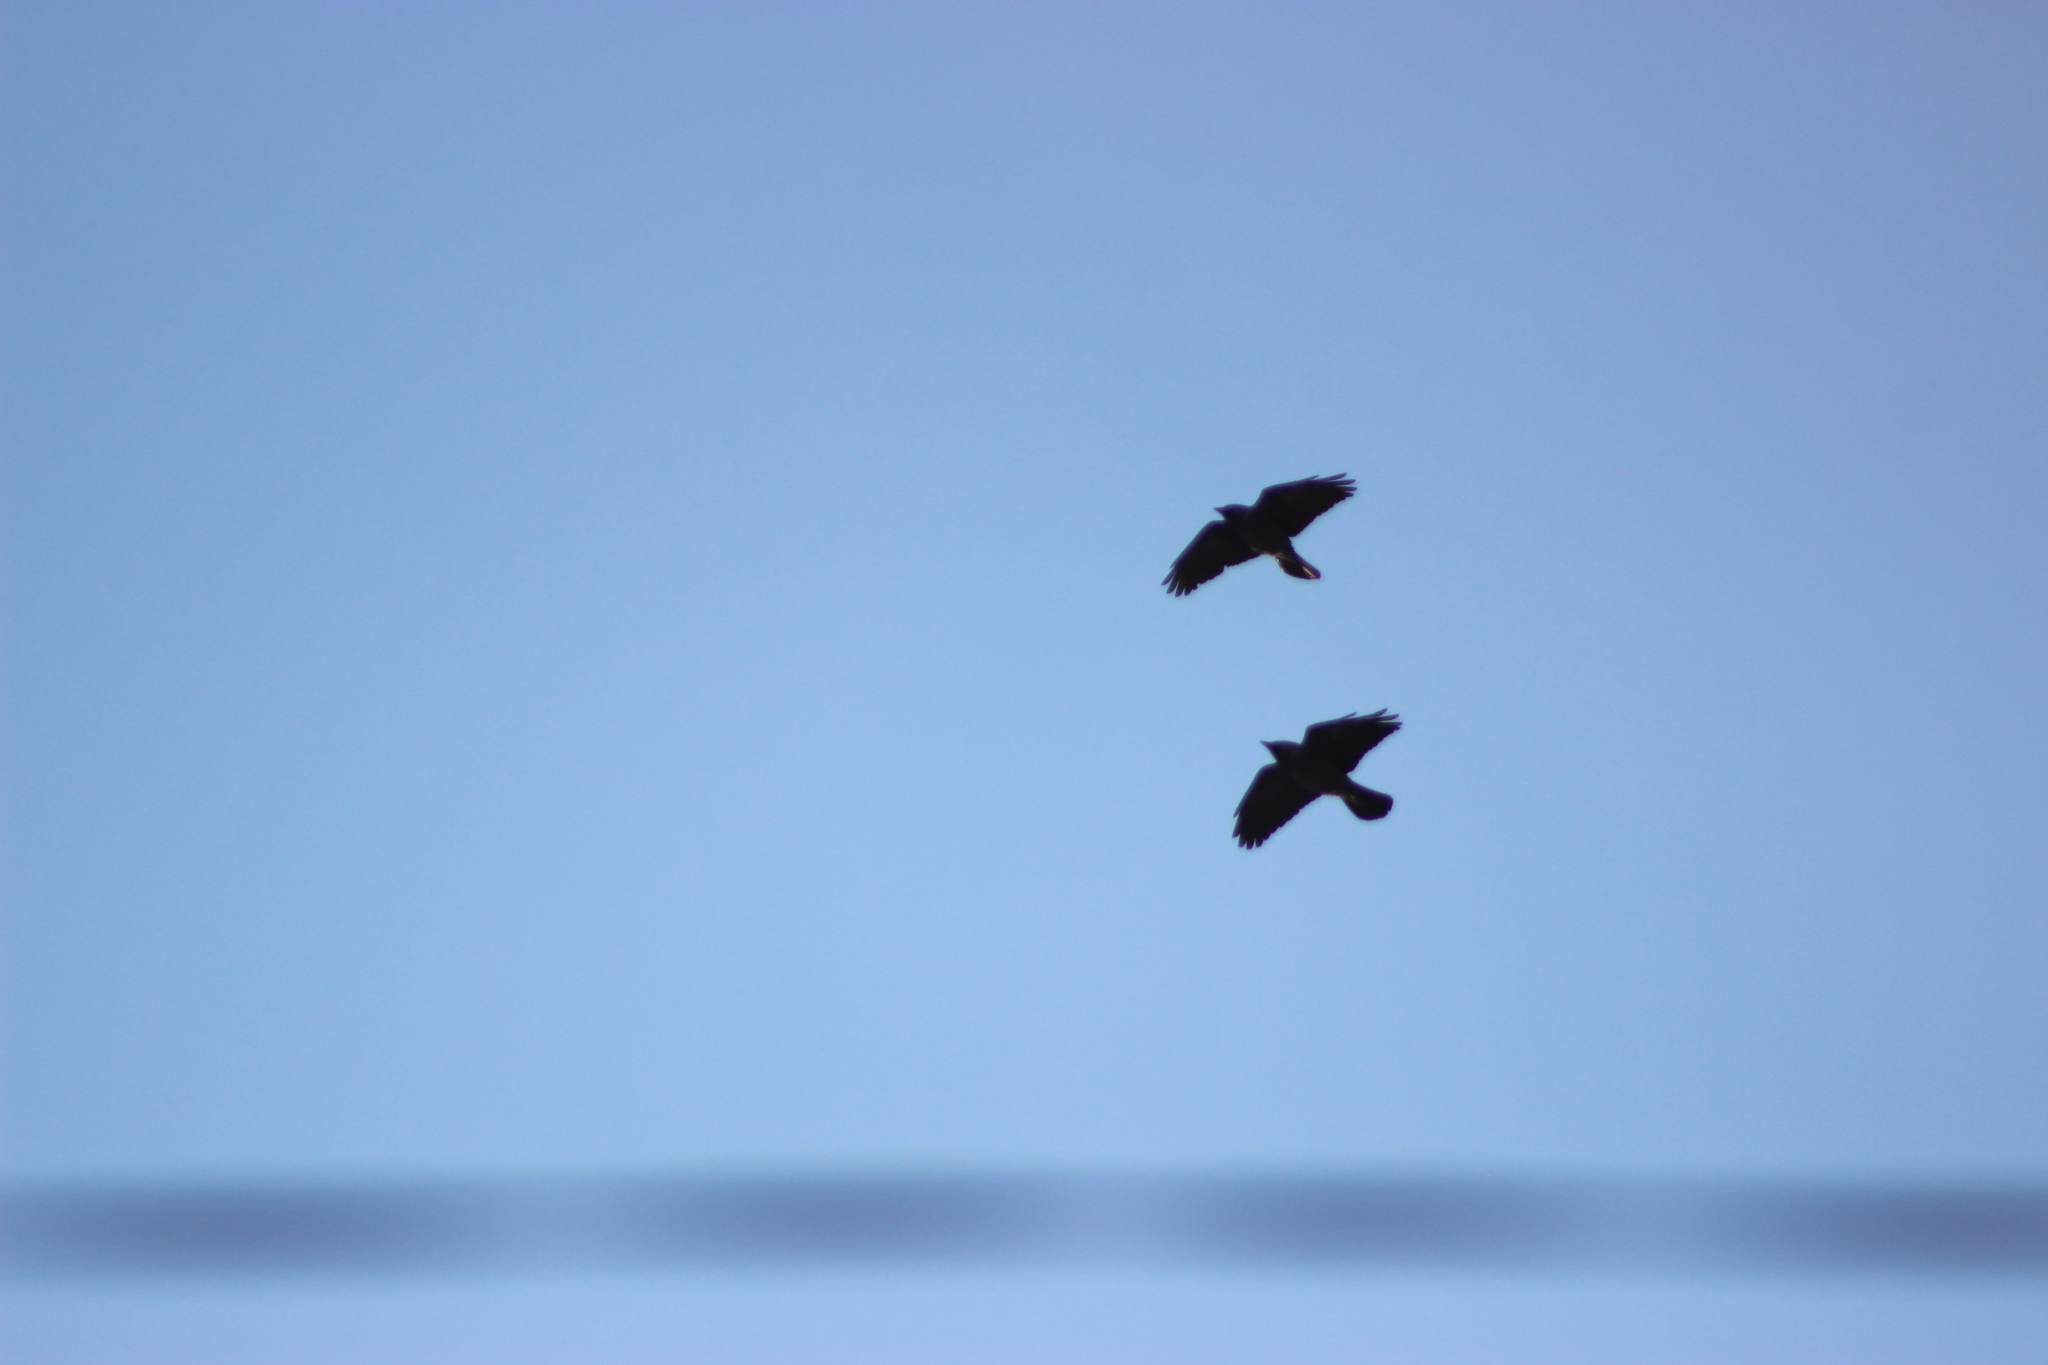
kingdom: Animalia
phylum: Chordata
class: Aves
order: Passeriformes
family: Corvidae
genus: Coloeus
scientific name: Coloeus monedula
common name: Western jackdaw
